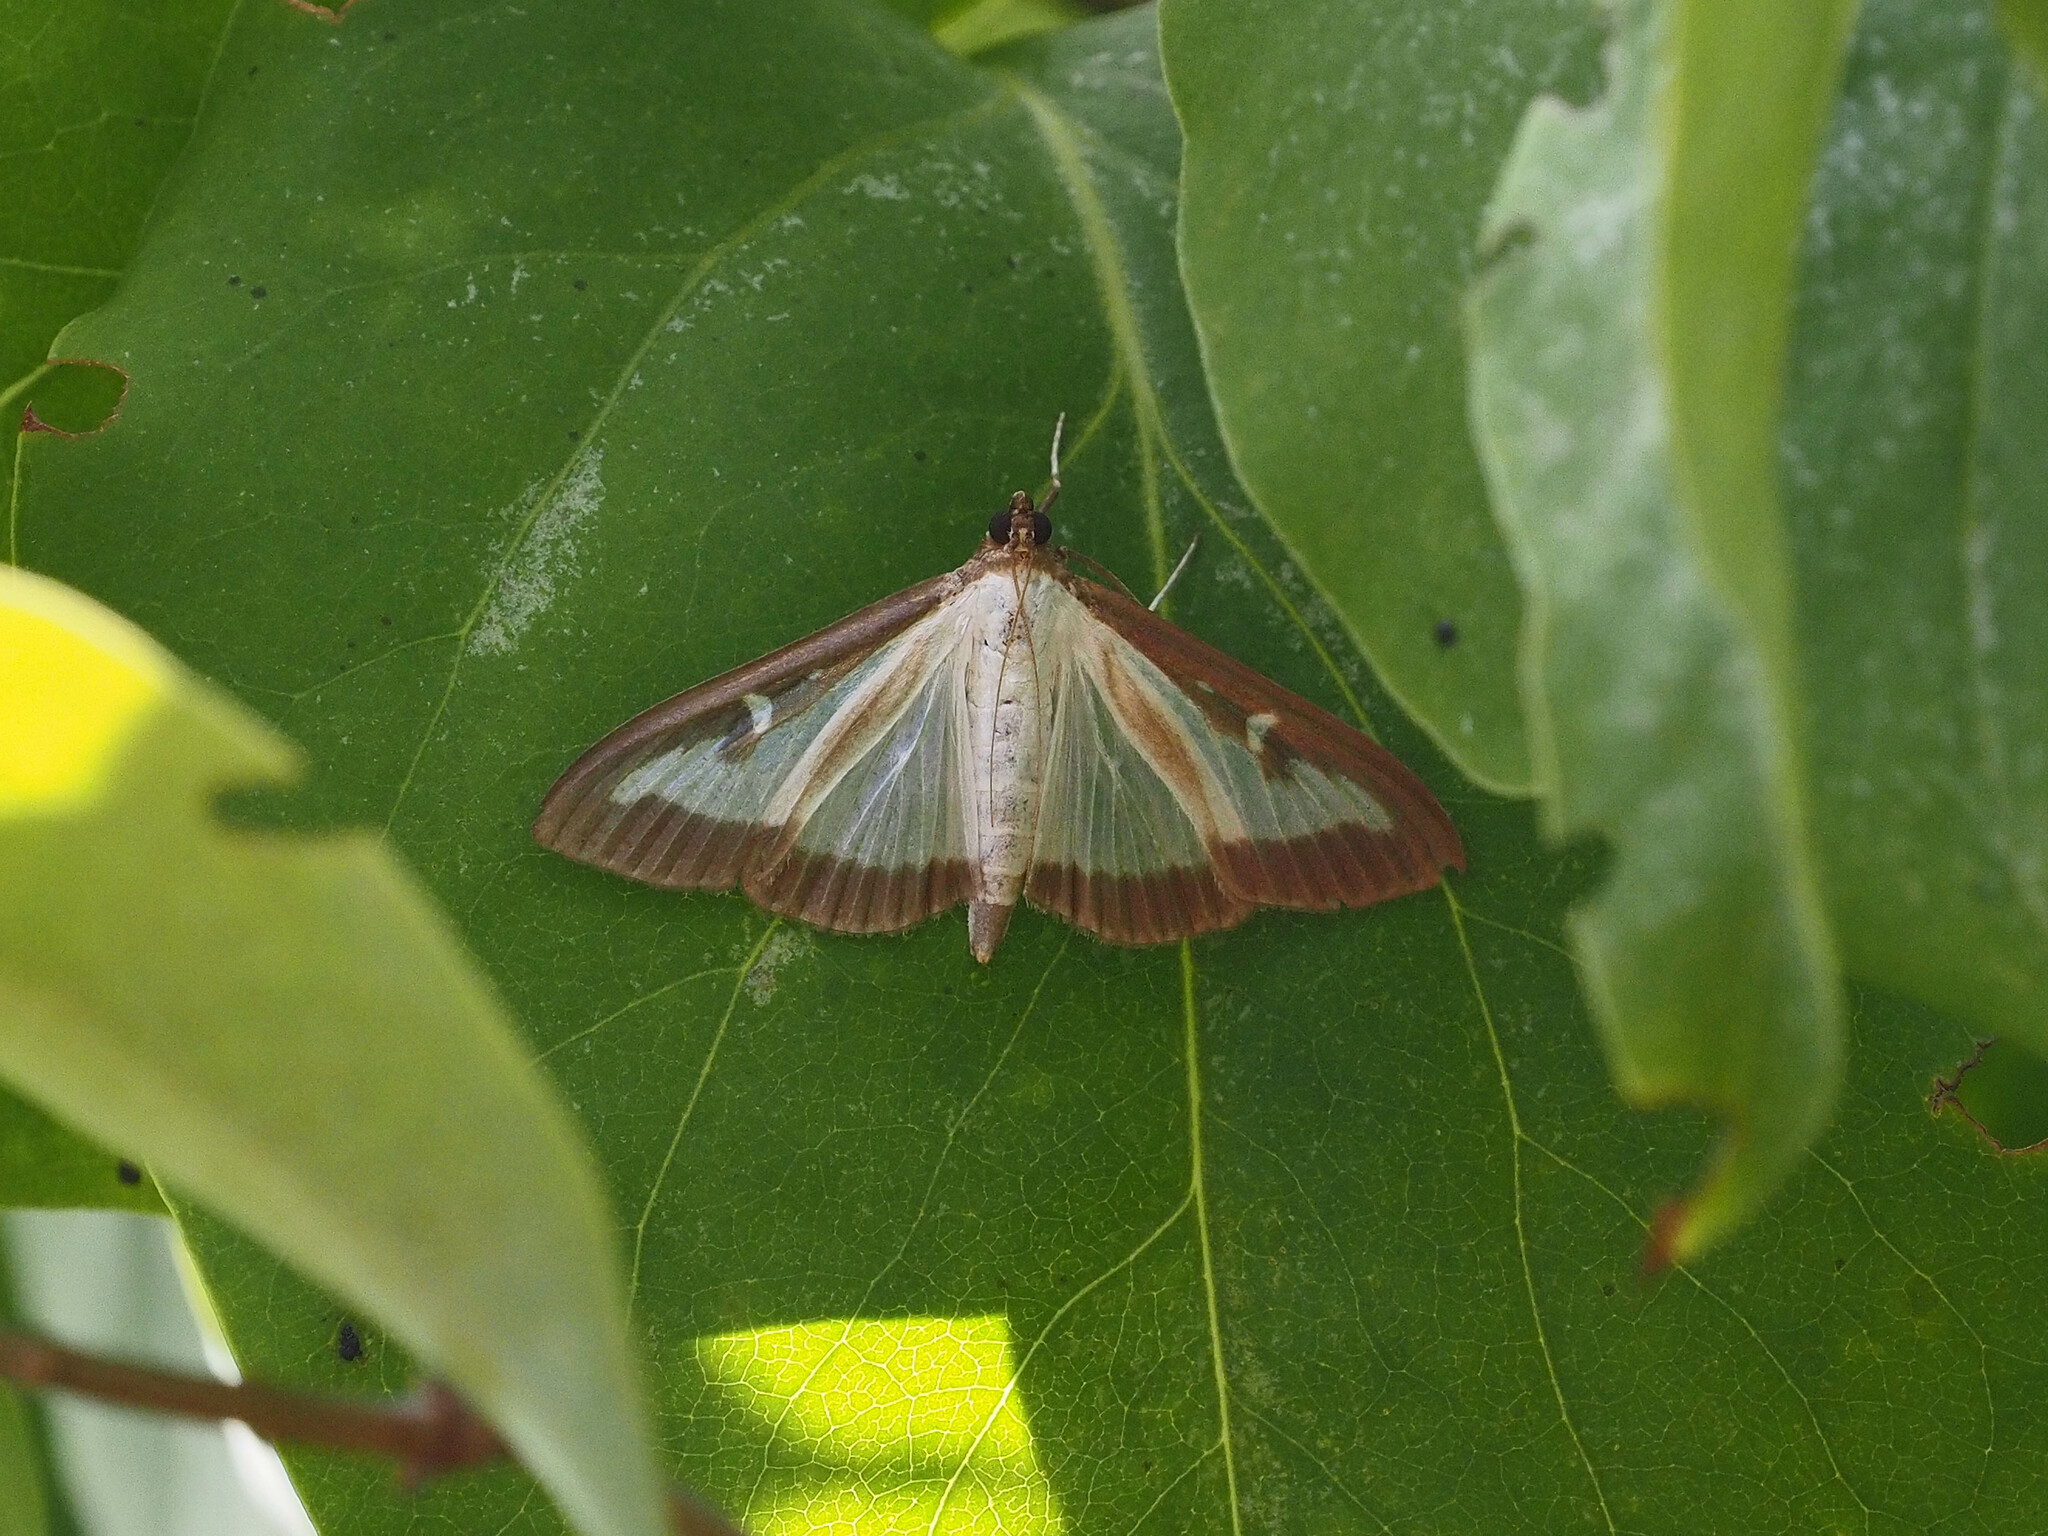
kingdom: Animalia
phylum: Arthropoda
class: Insecta
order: Lepidoptera
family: Crambidae
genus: Cydalima
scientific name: Cydalima perspectalis
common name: Box tree moth
